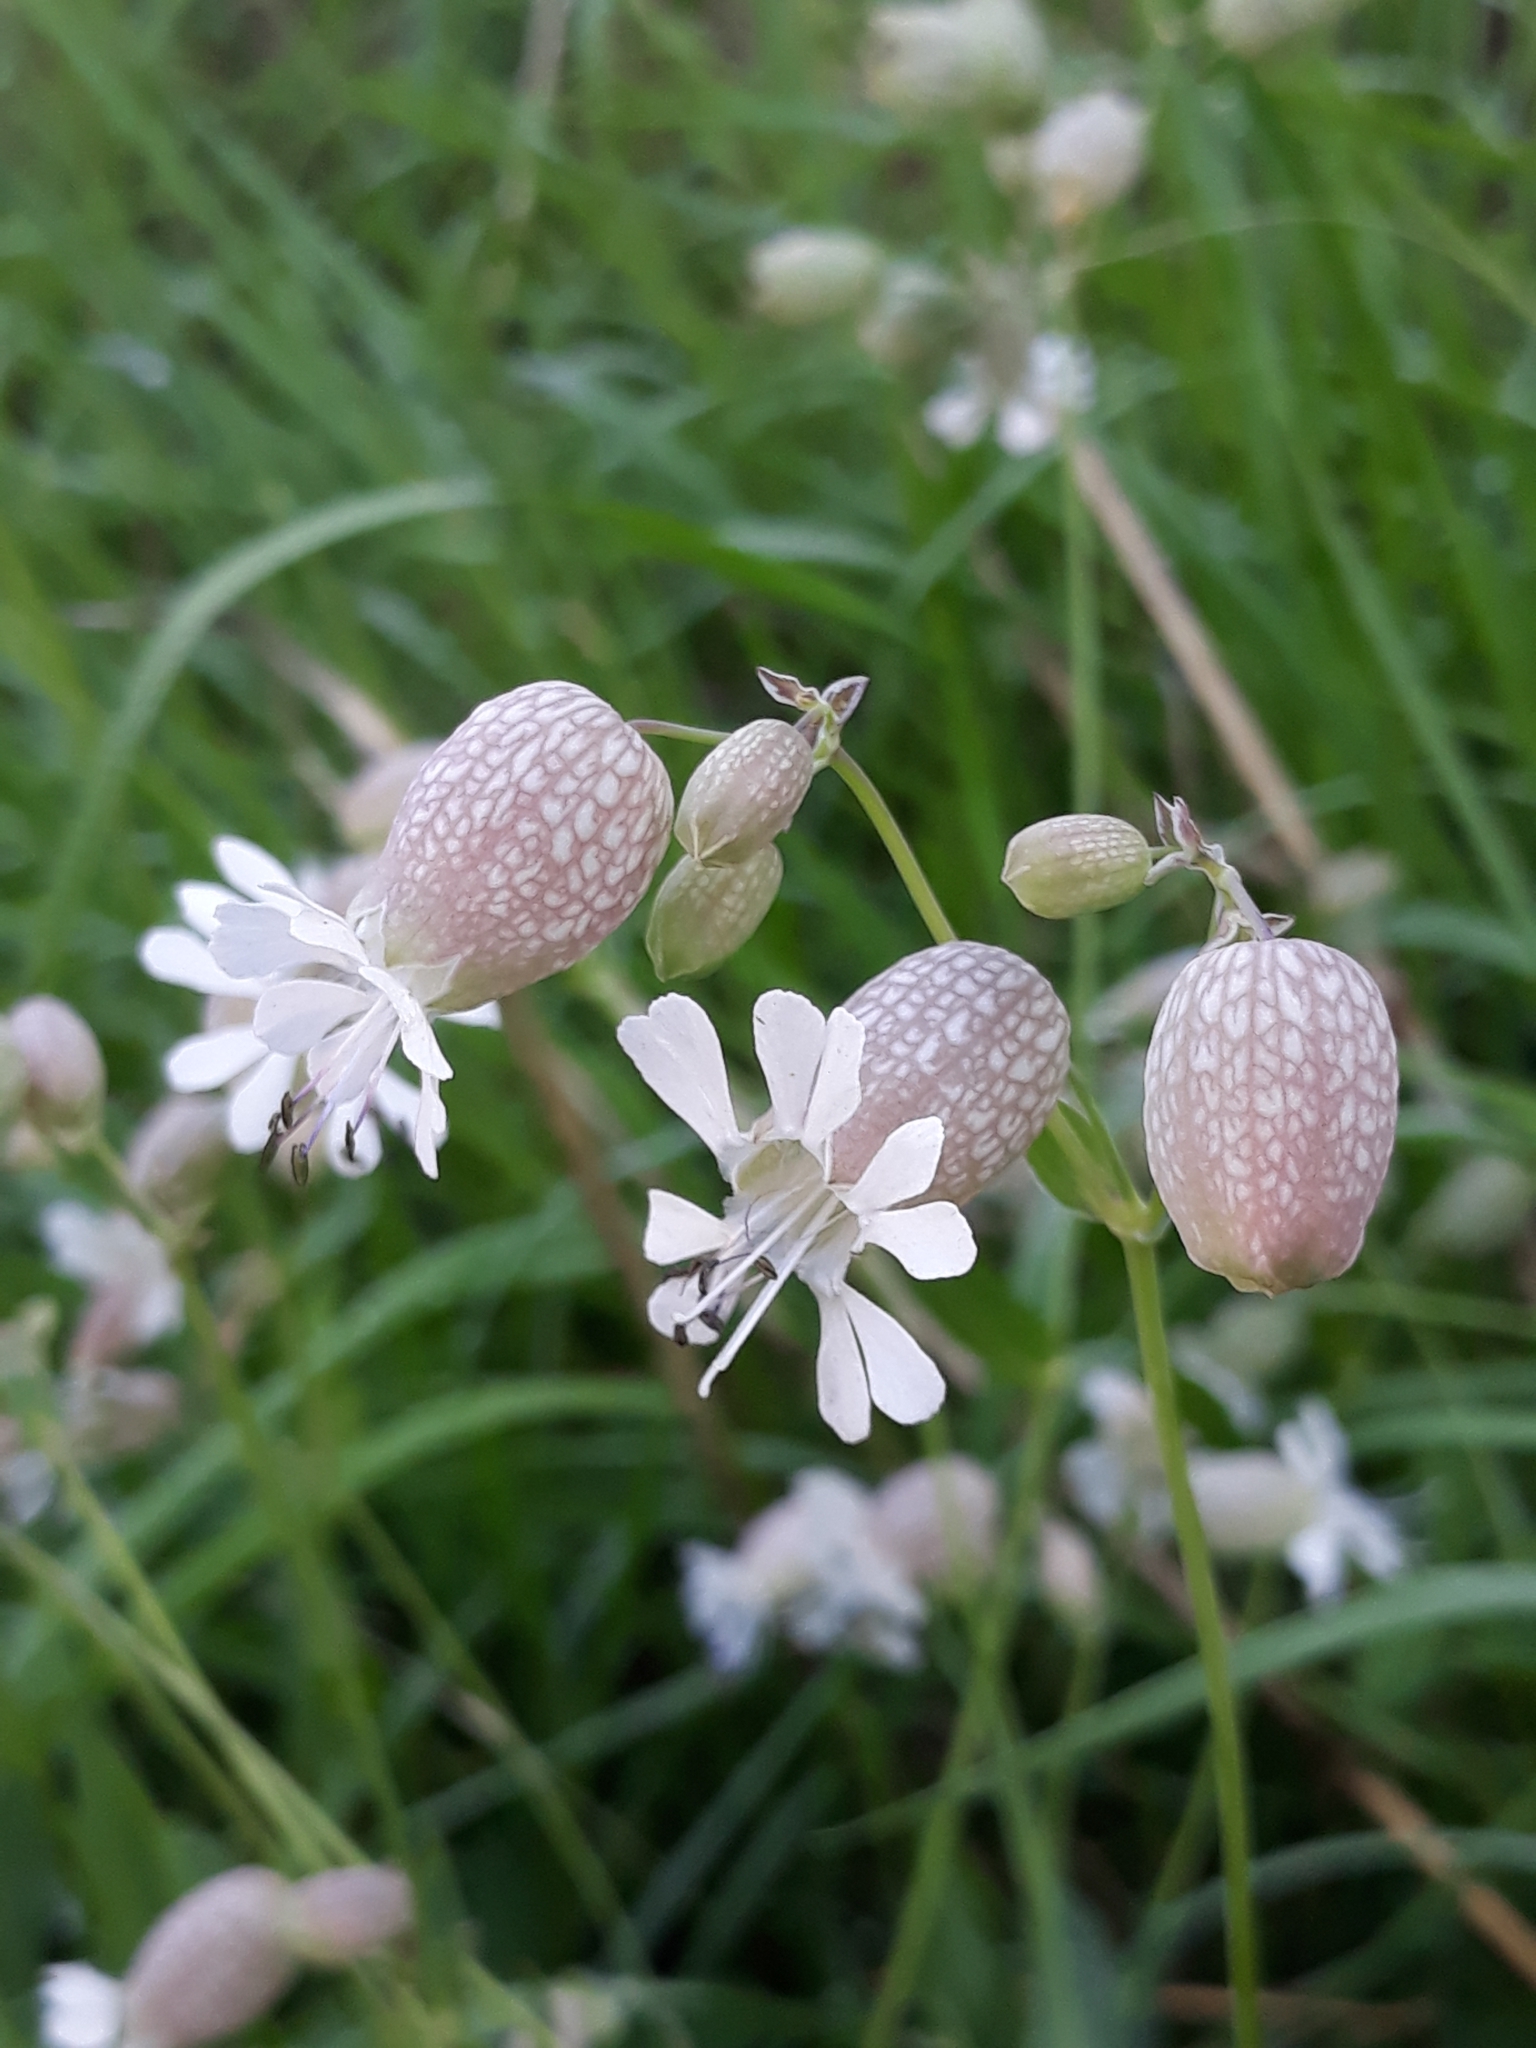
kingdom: Plantae
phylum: Tracheophyta
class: Magnoliopsida
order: Caryophyllales
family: Caryophyllaceae
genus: Silene
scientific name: Silene vulgaris
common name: Bladder campion
